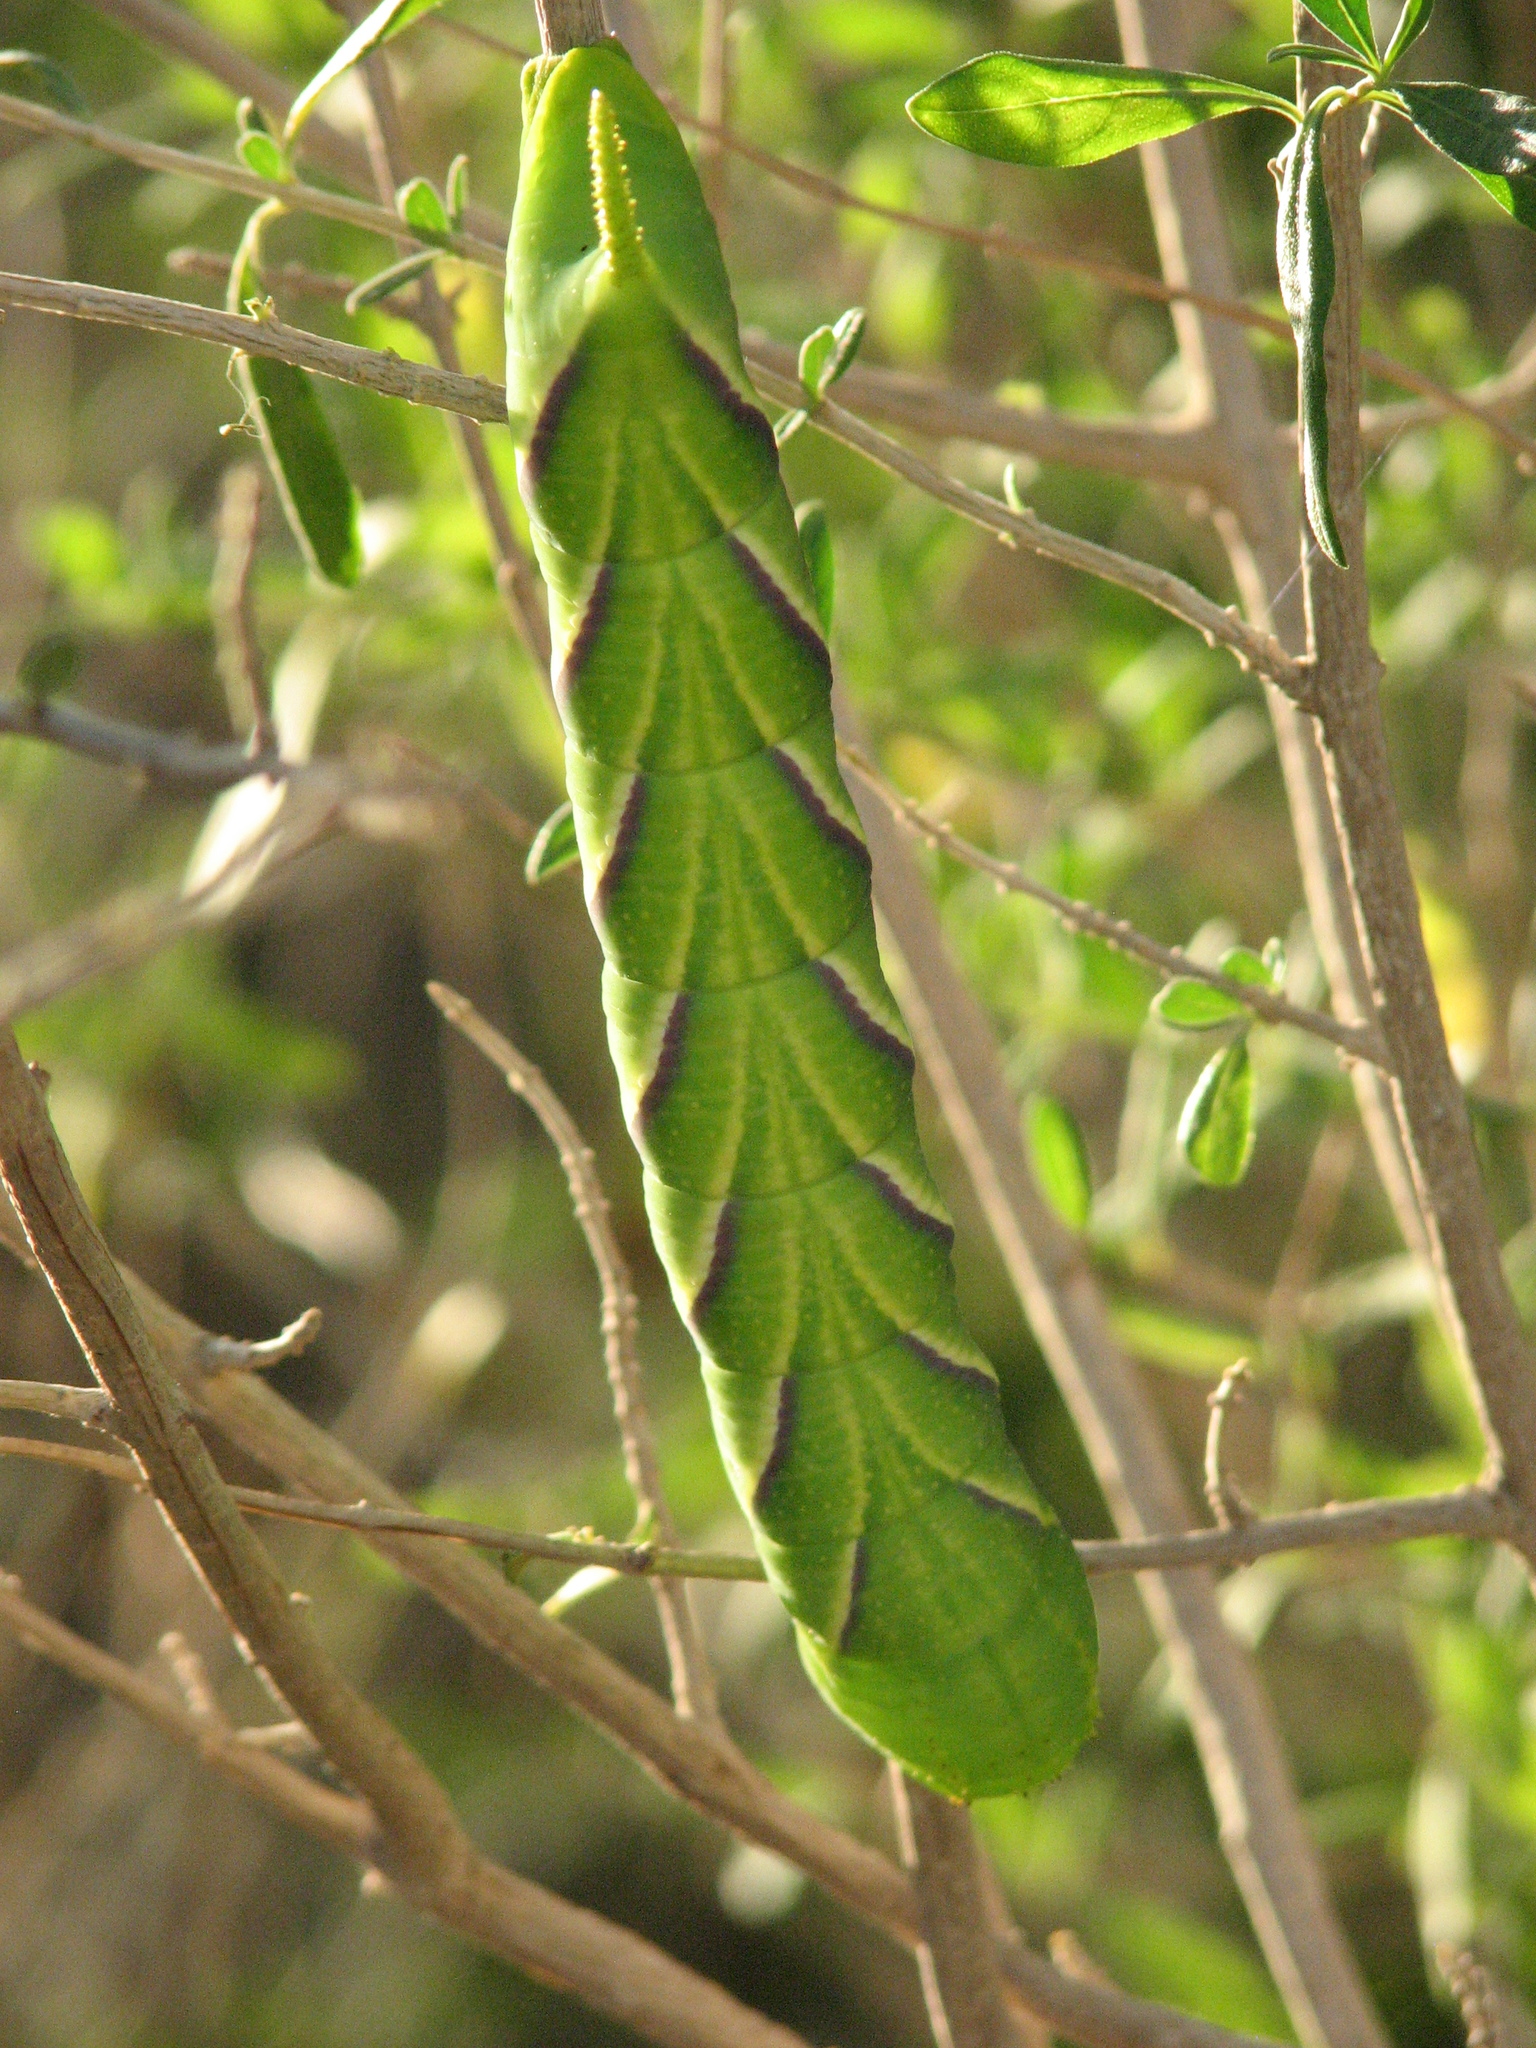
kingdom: Animalia
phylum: Arthropoda
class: Insecta
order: Lepidoptera
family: Sphingidae
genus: Manduca
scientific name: Manduca rustica
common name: Rustic sphinx
